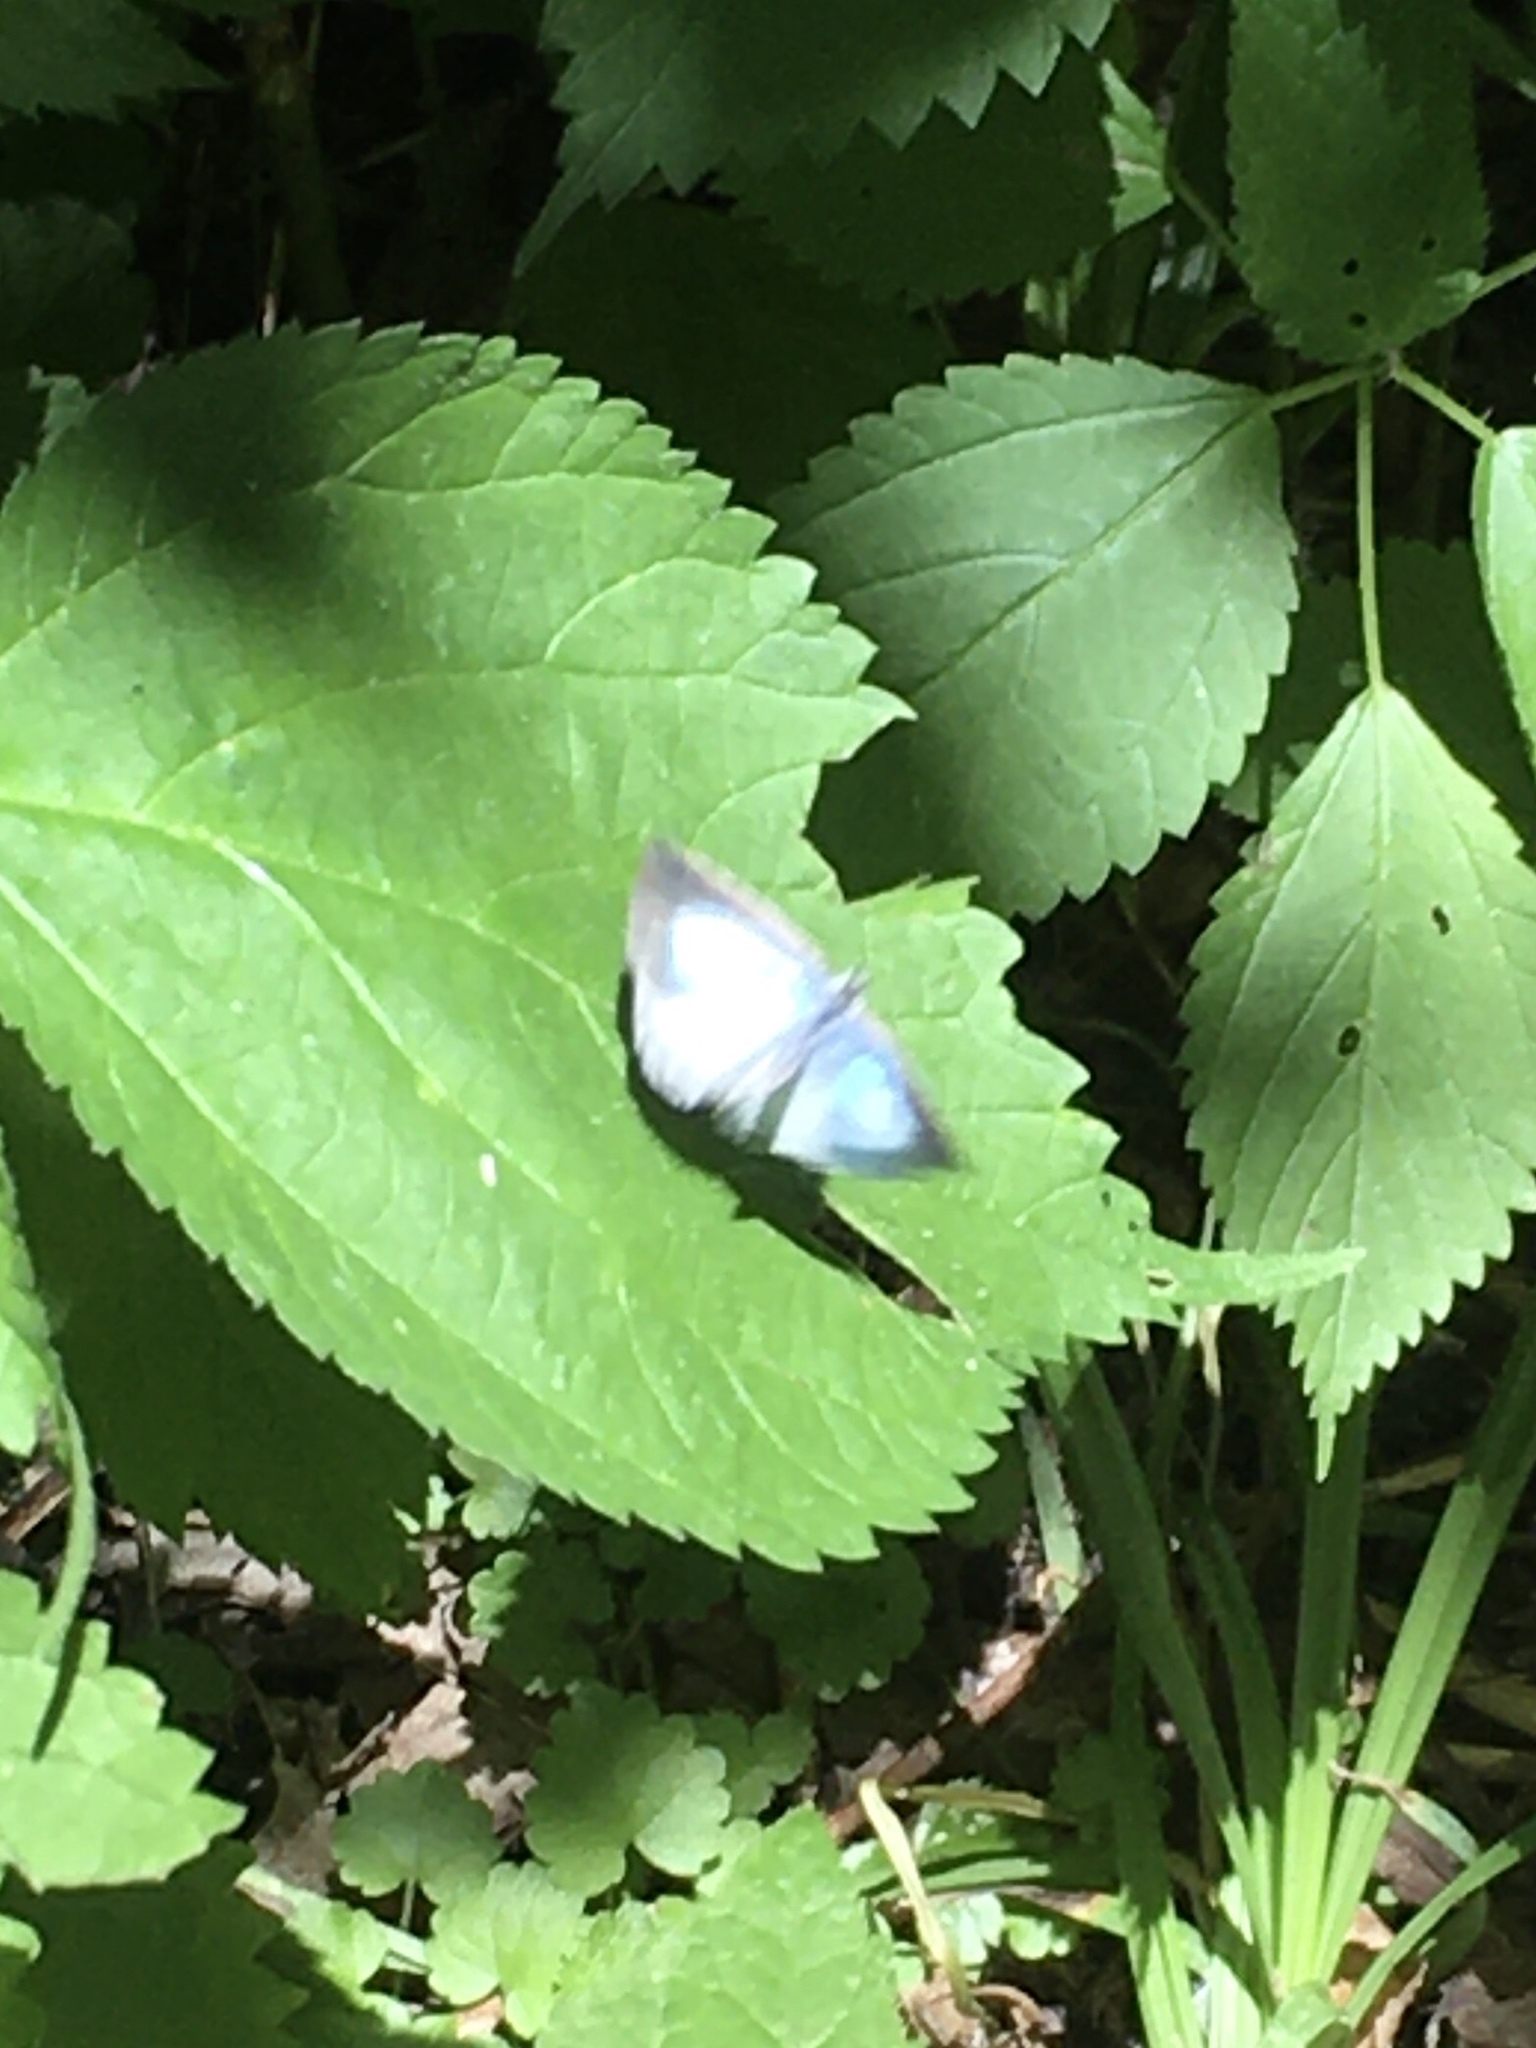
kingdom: Animalia
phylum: Arthropoda
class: Insecta
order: Lepidoptera
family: Lycaenidae
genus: Cyaniris
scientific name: Cyaniris neglecta
